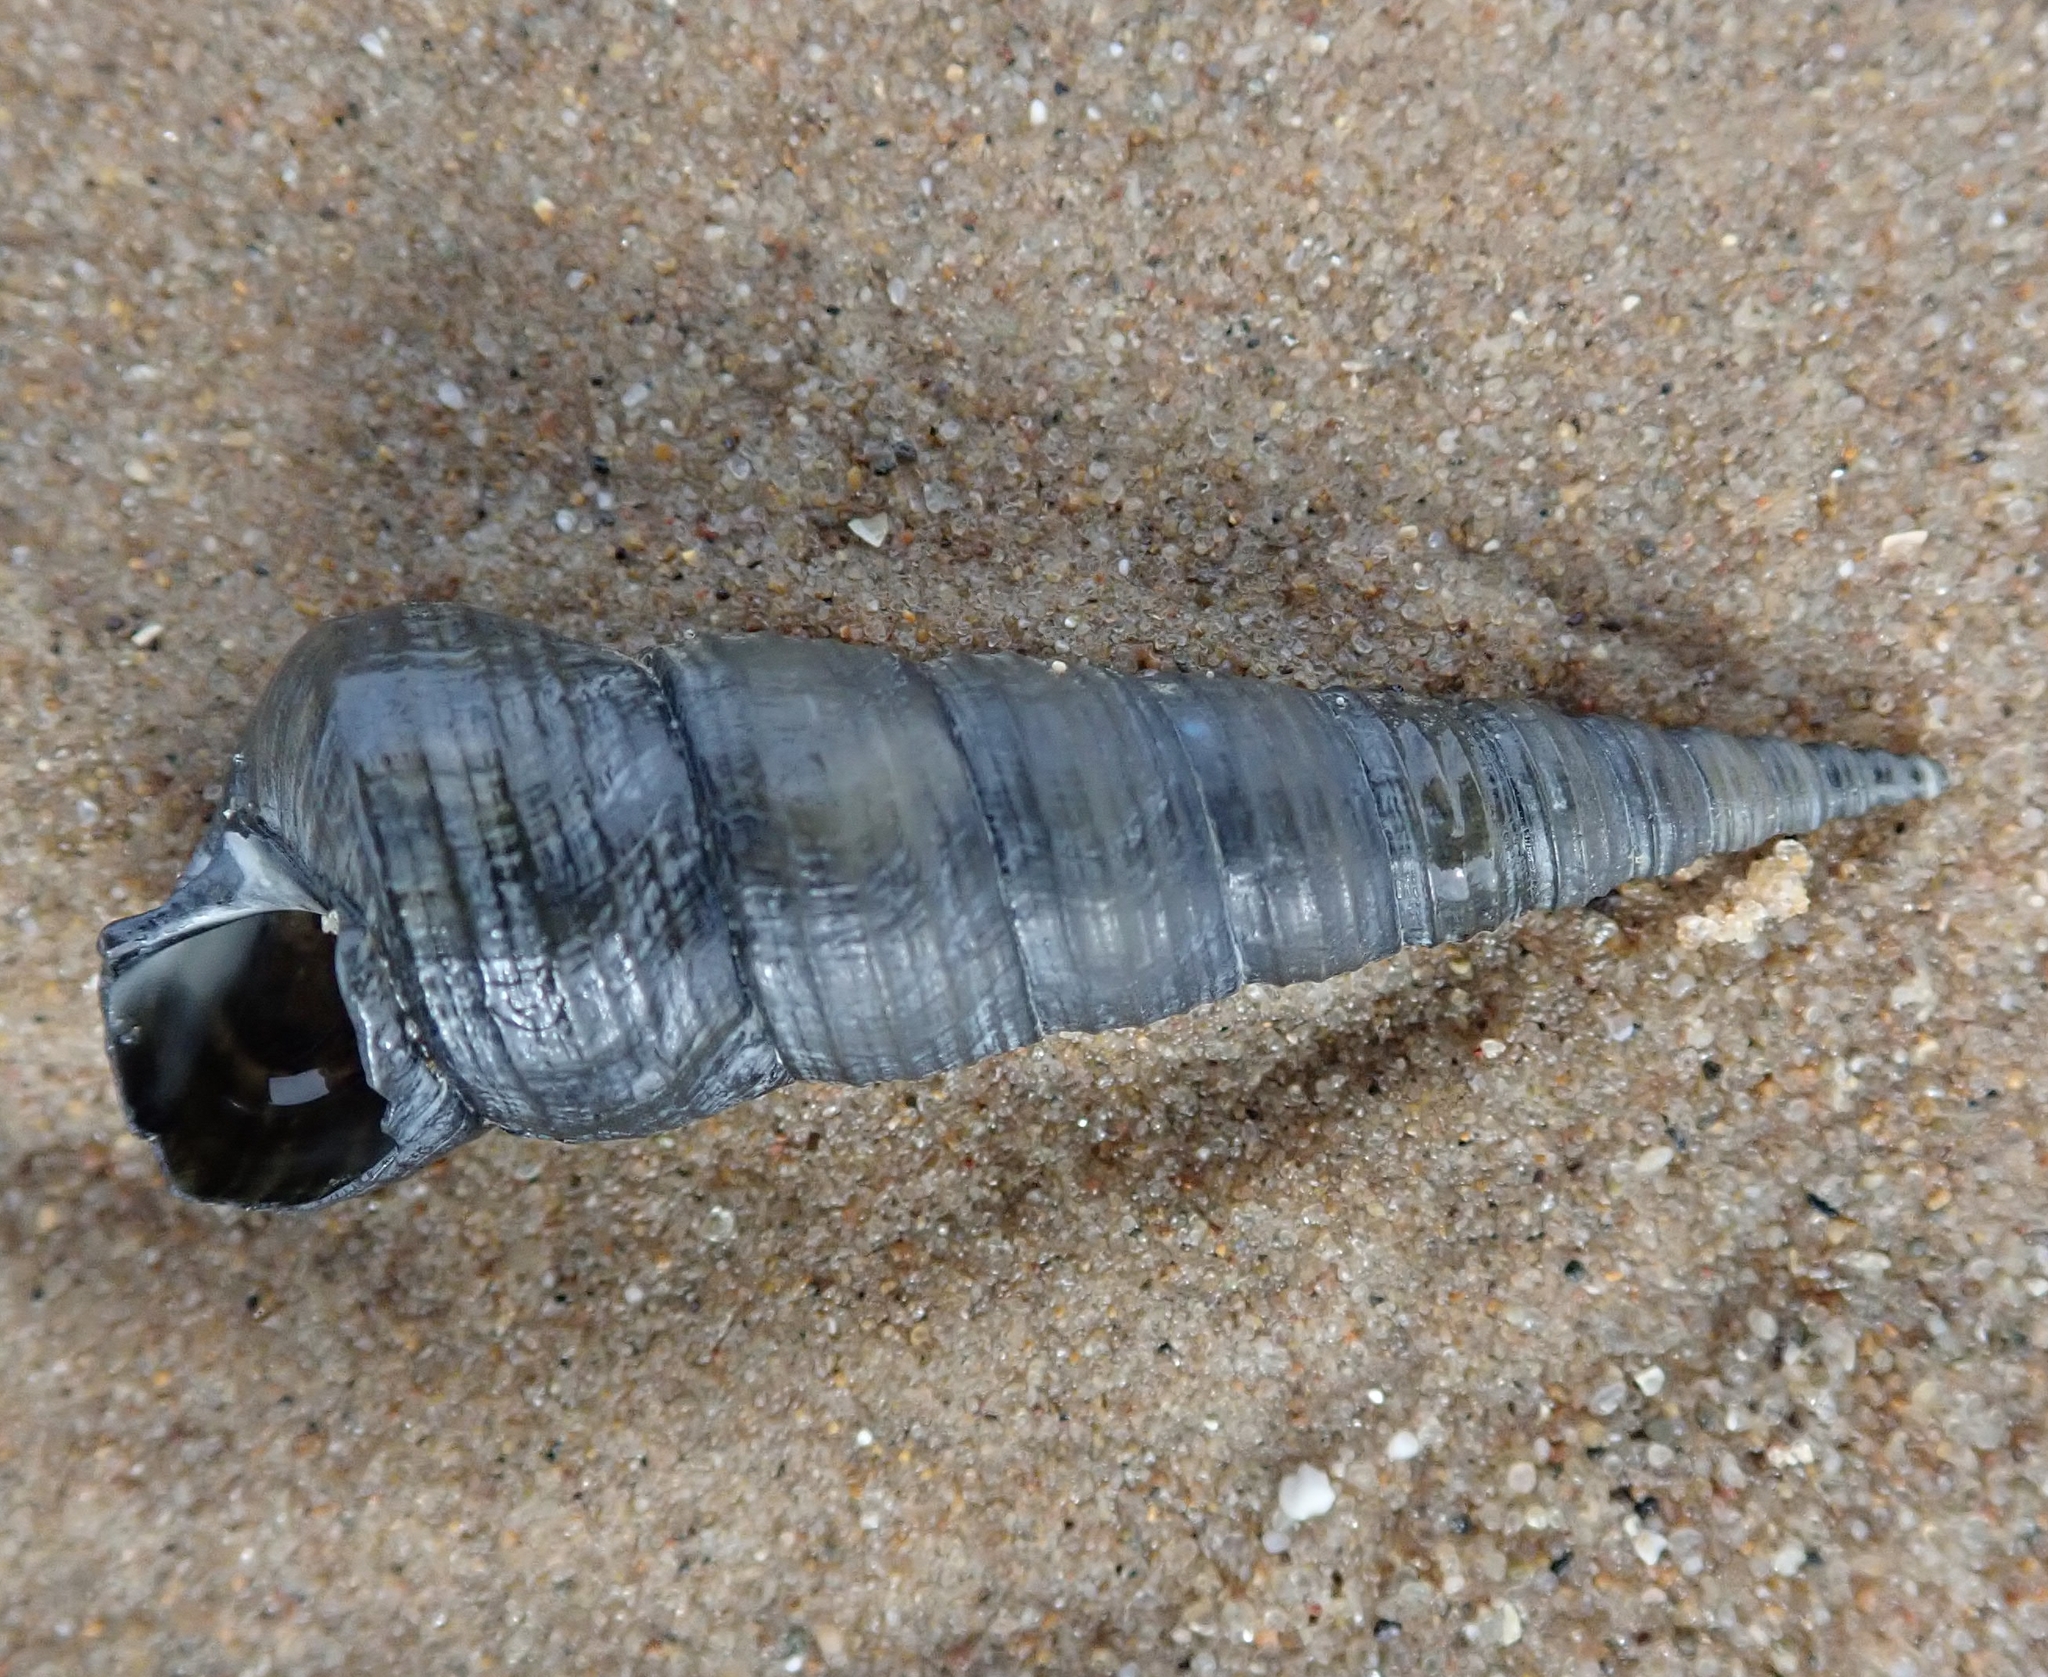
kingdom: Animalia
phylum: Mollusca
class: Gastropoda
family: Turritellidae
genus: Turritellinella
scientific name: Turritellinella tricarinata
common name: Auger shell
